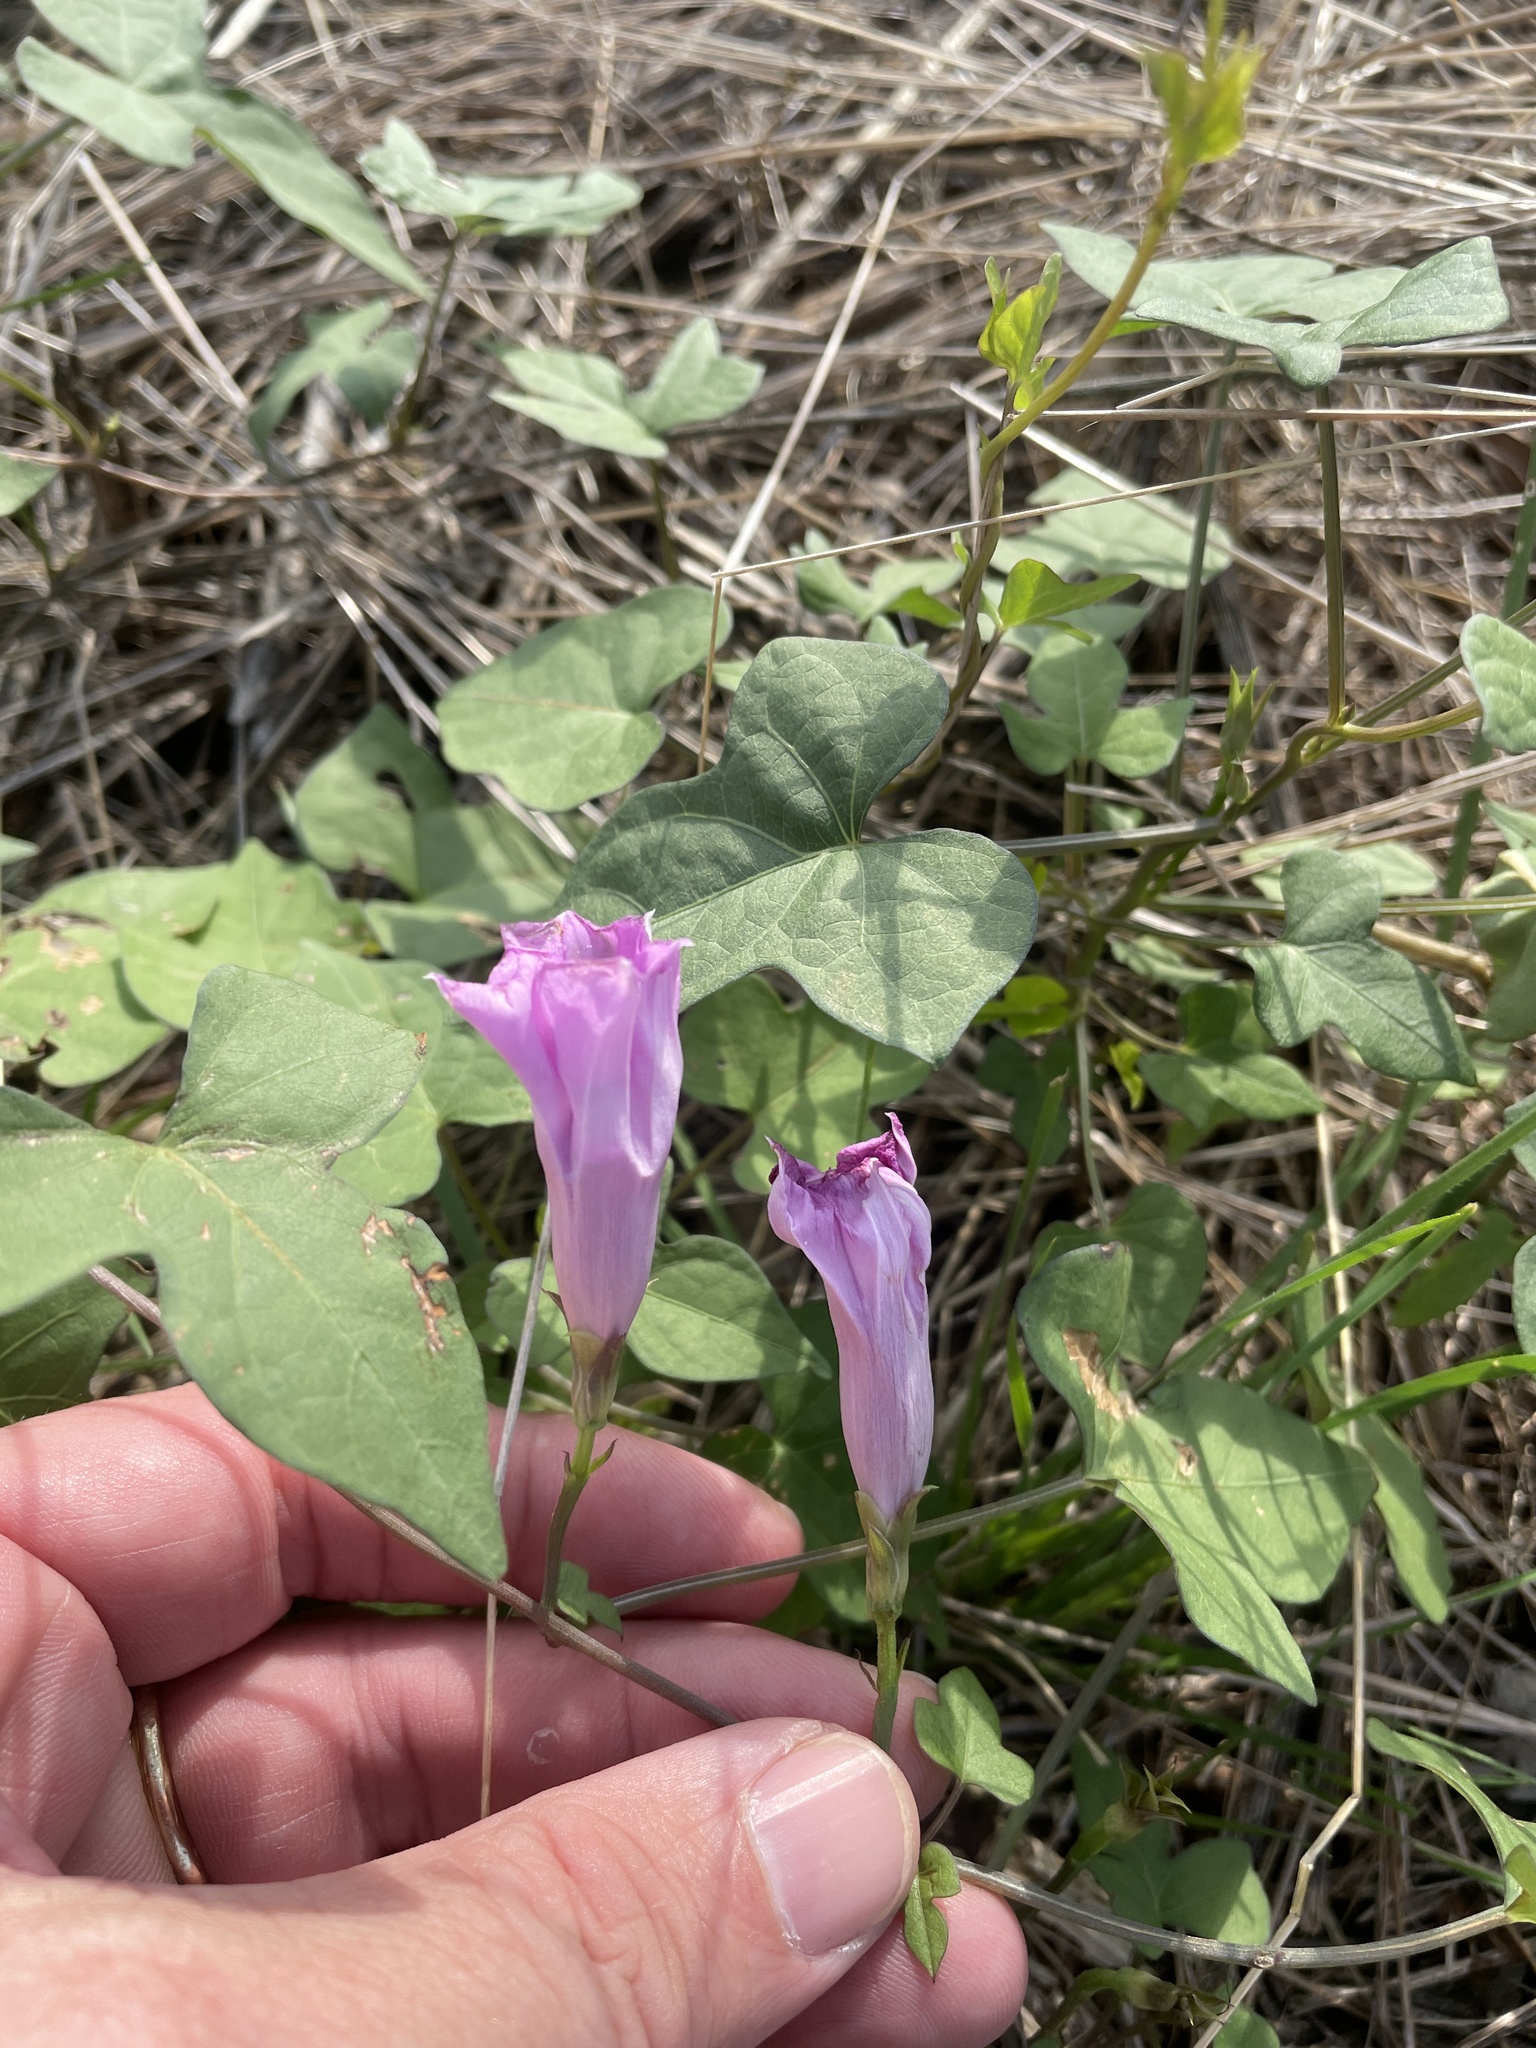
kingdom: Plantae
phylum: Tracheophyta
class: Magnoliopsida
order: Solanales
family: Convolvulaceae
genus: Ipomoea
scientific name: Ipomoea cordatotriloba
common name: Cotton morning glory
